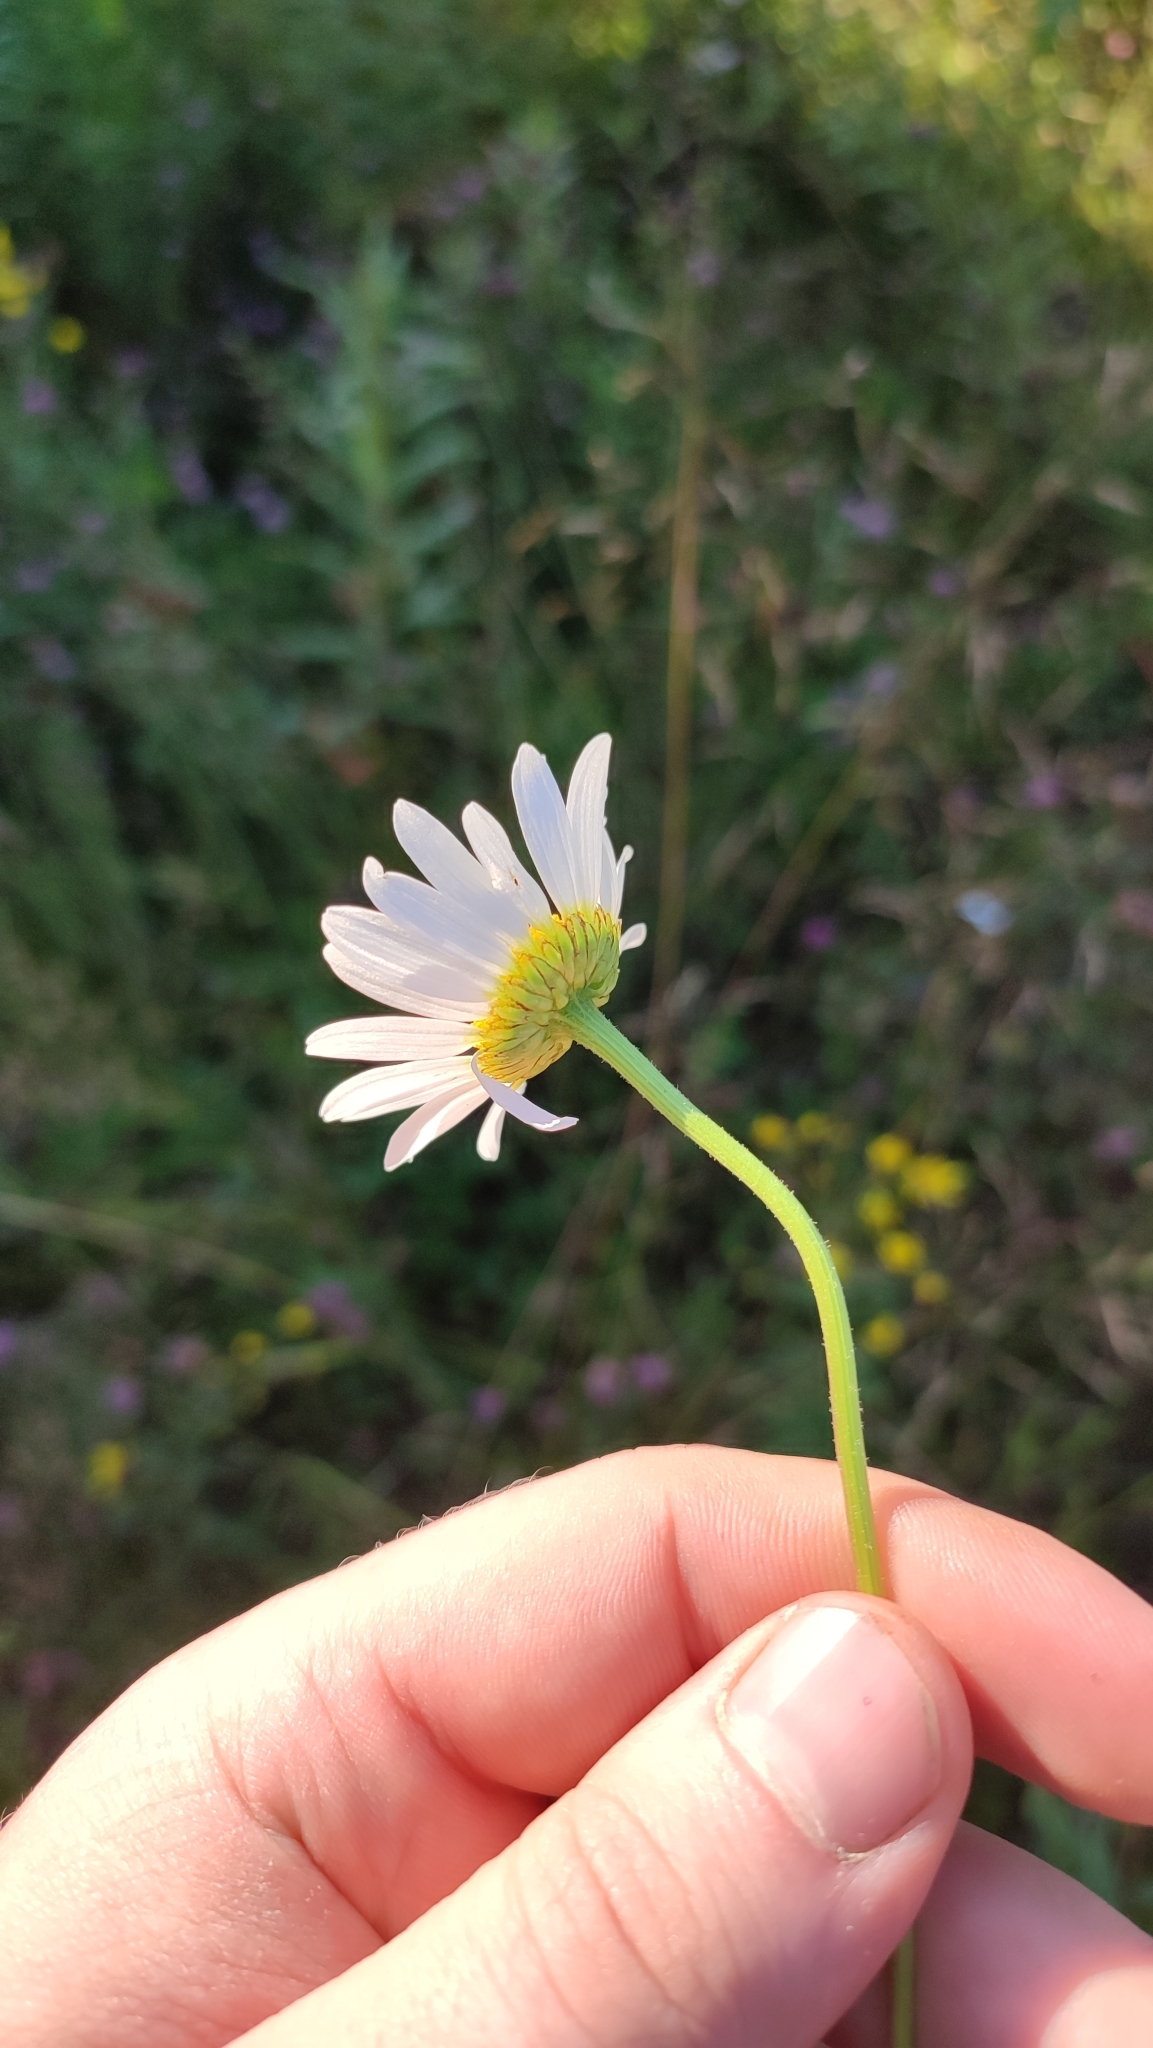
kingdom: Plantae
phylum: Tracheophyta
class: Magnoliopsida
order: Asterales
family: Asteraceae
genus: Leucanthemum
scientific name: Leucanthemum ircutianum
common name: Daisy
